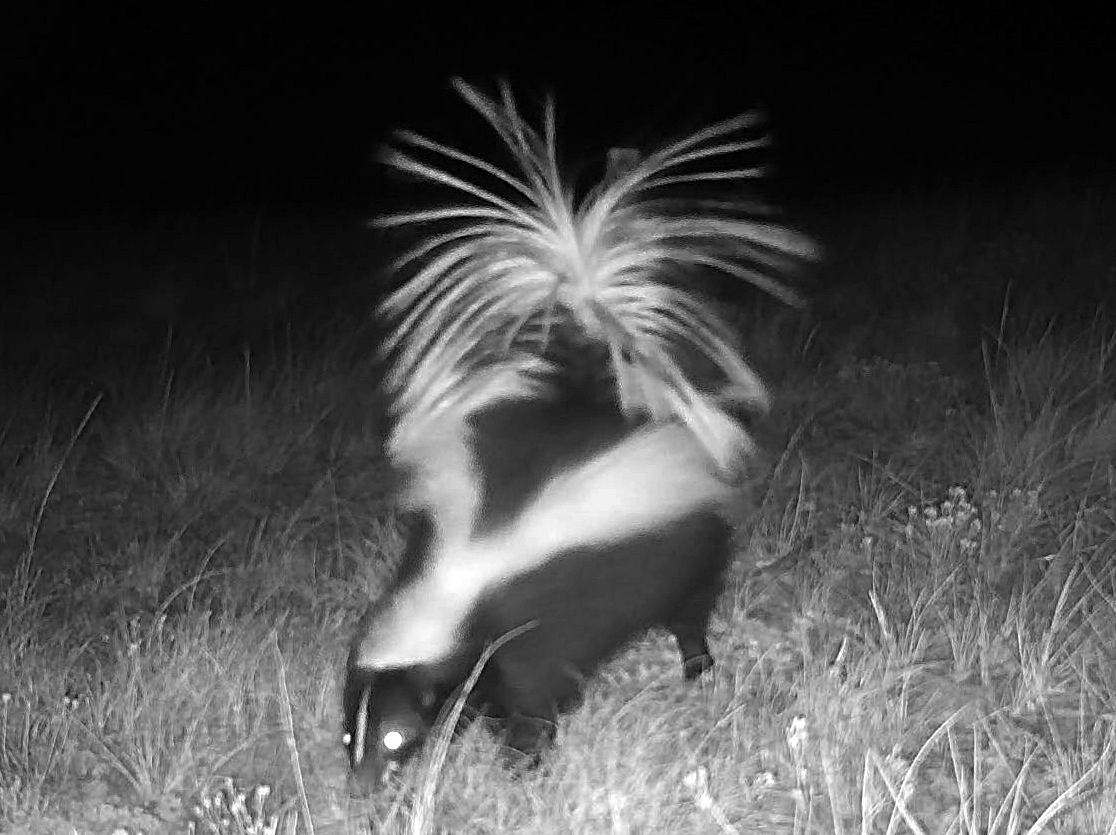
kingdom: Animalia
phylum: Chordata
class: Mammalia
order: Carnivora
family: Mephitidae
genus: Mephitis
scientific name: Mephitis mephitis
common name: Striped skunk
